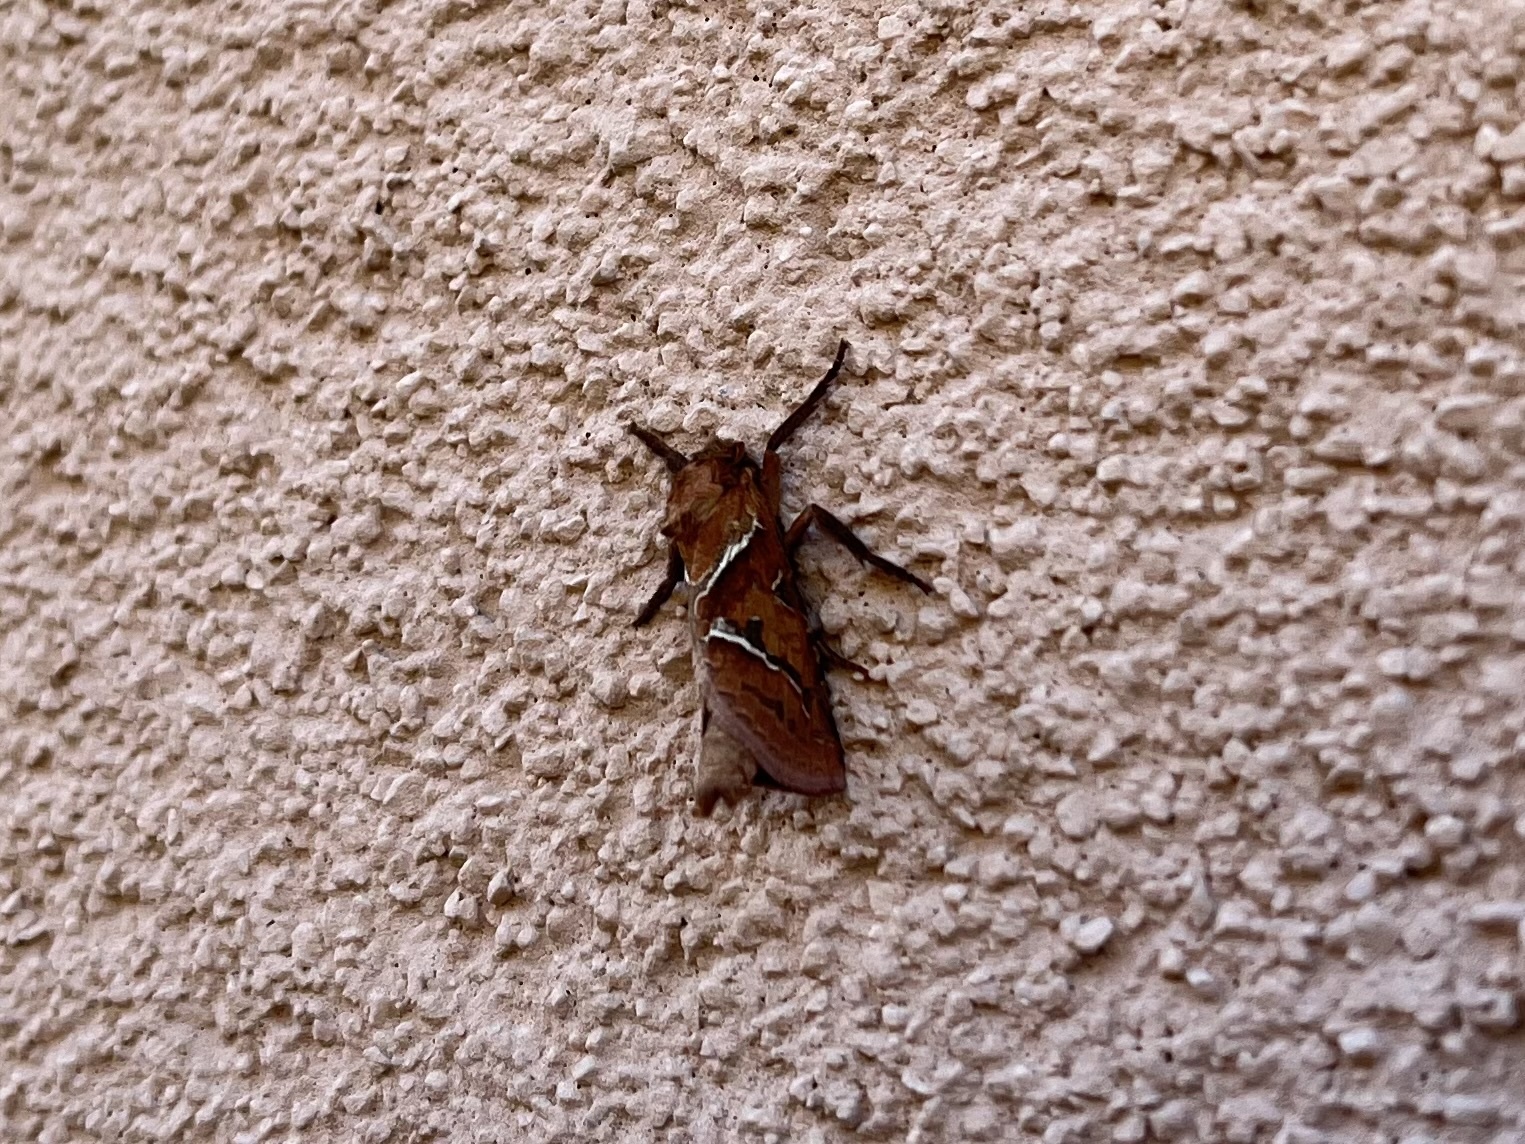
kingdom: Animalia
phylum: Arthropoda
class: Insecta
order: Lepidoptera
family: Hepialidae
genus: Triodia
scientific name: Triodia sylvina
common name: Orange swift
